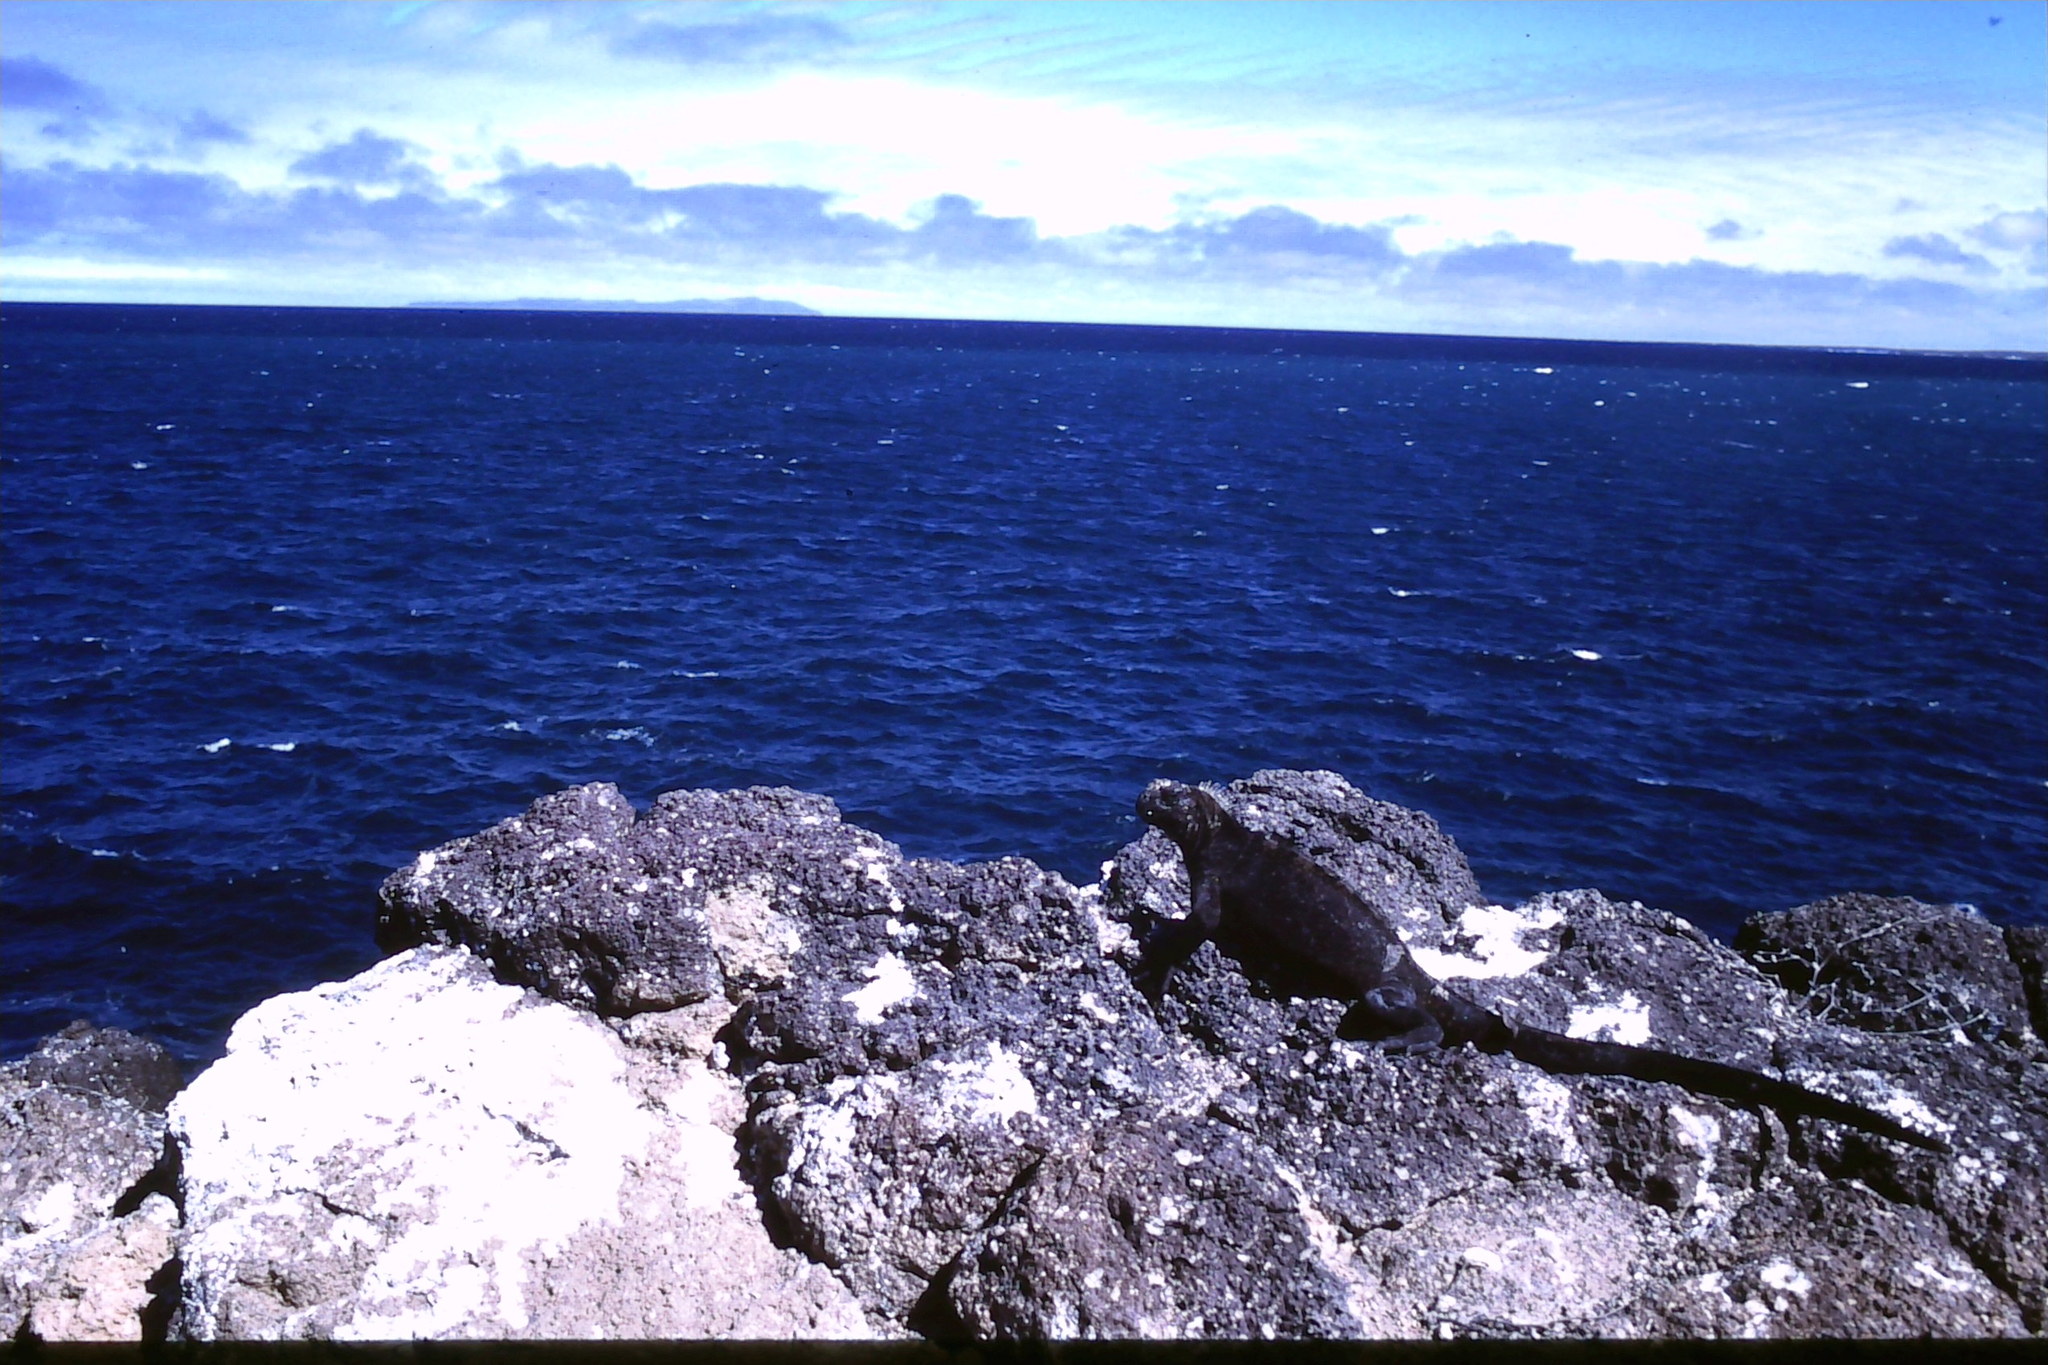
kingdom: Animalia
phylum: Chordata
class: Squamata
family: Iguanidae
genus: Amblyrhynchus
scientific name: Amblyrhynchus cristatus
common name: Marine iguana
